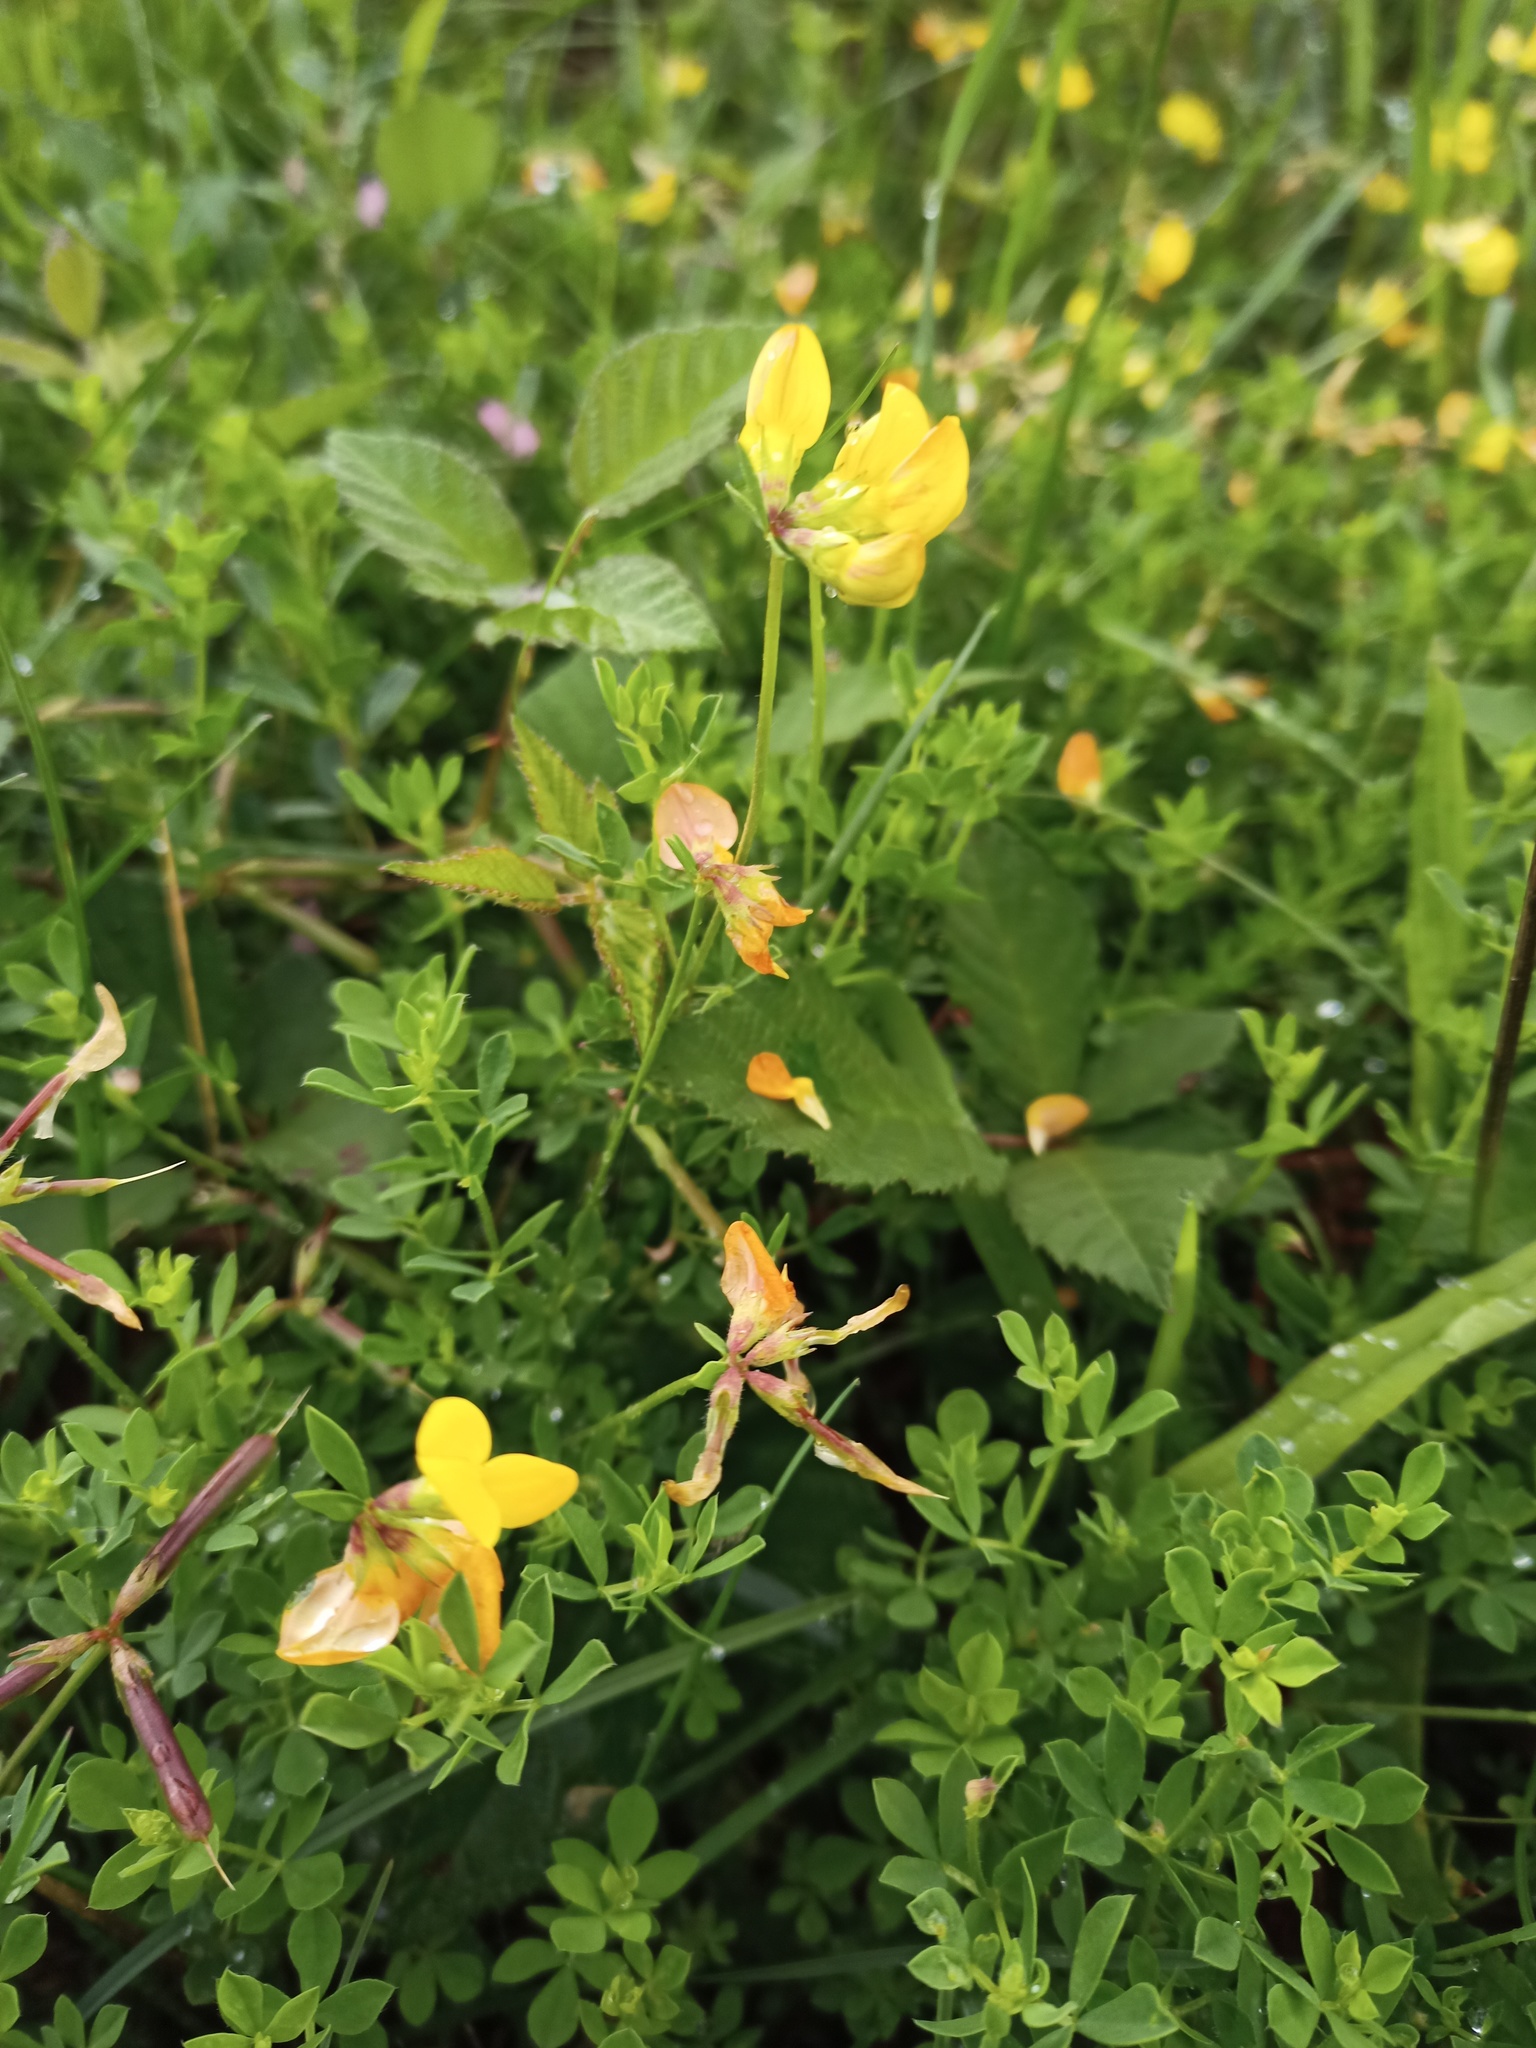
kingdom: Plantae
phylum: Tracheophyta
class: Magnoliopsida
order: Fabales
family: Fabaceae
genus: Lotus
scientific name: Lotus corniculatus
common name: Common bird's-foot-trefoil
